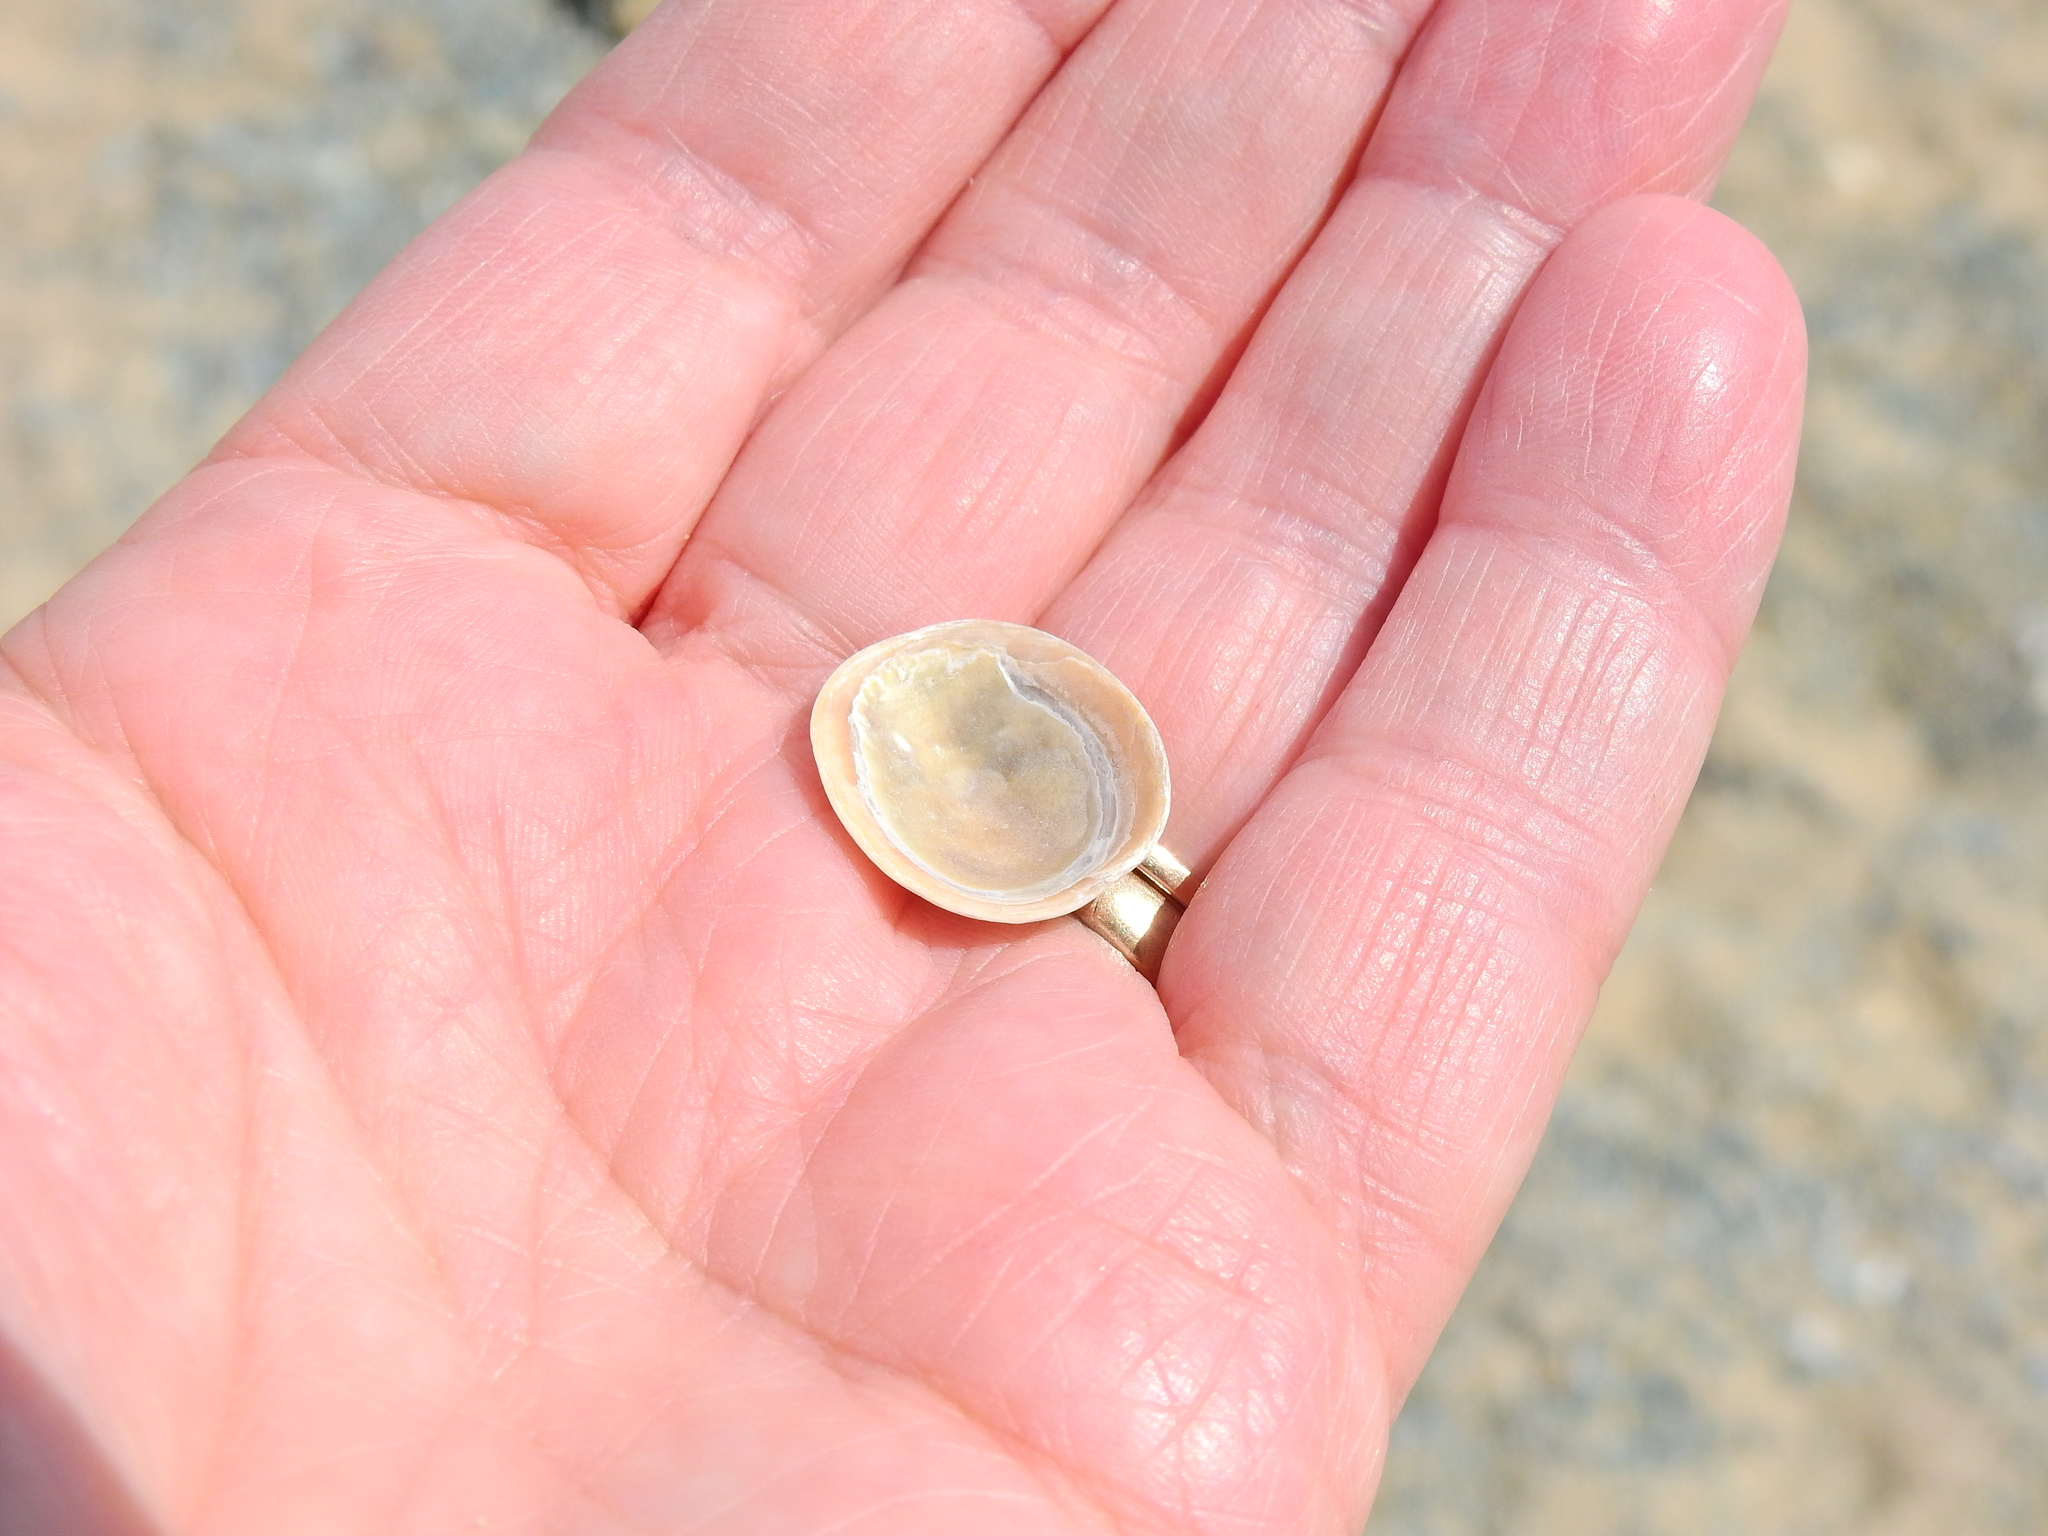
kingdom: Animalia
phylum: Mollusca
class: Gastropoda
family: Patellidae
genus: Patella
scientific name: Patella pellucida
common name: Blue-rayed limpet
